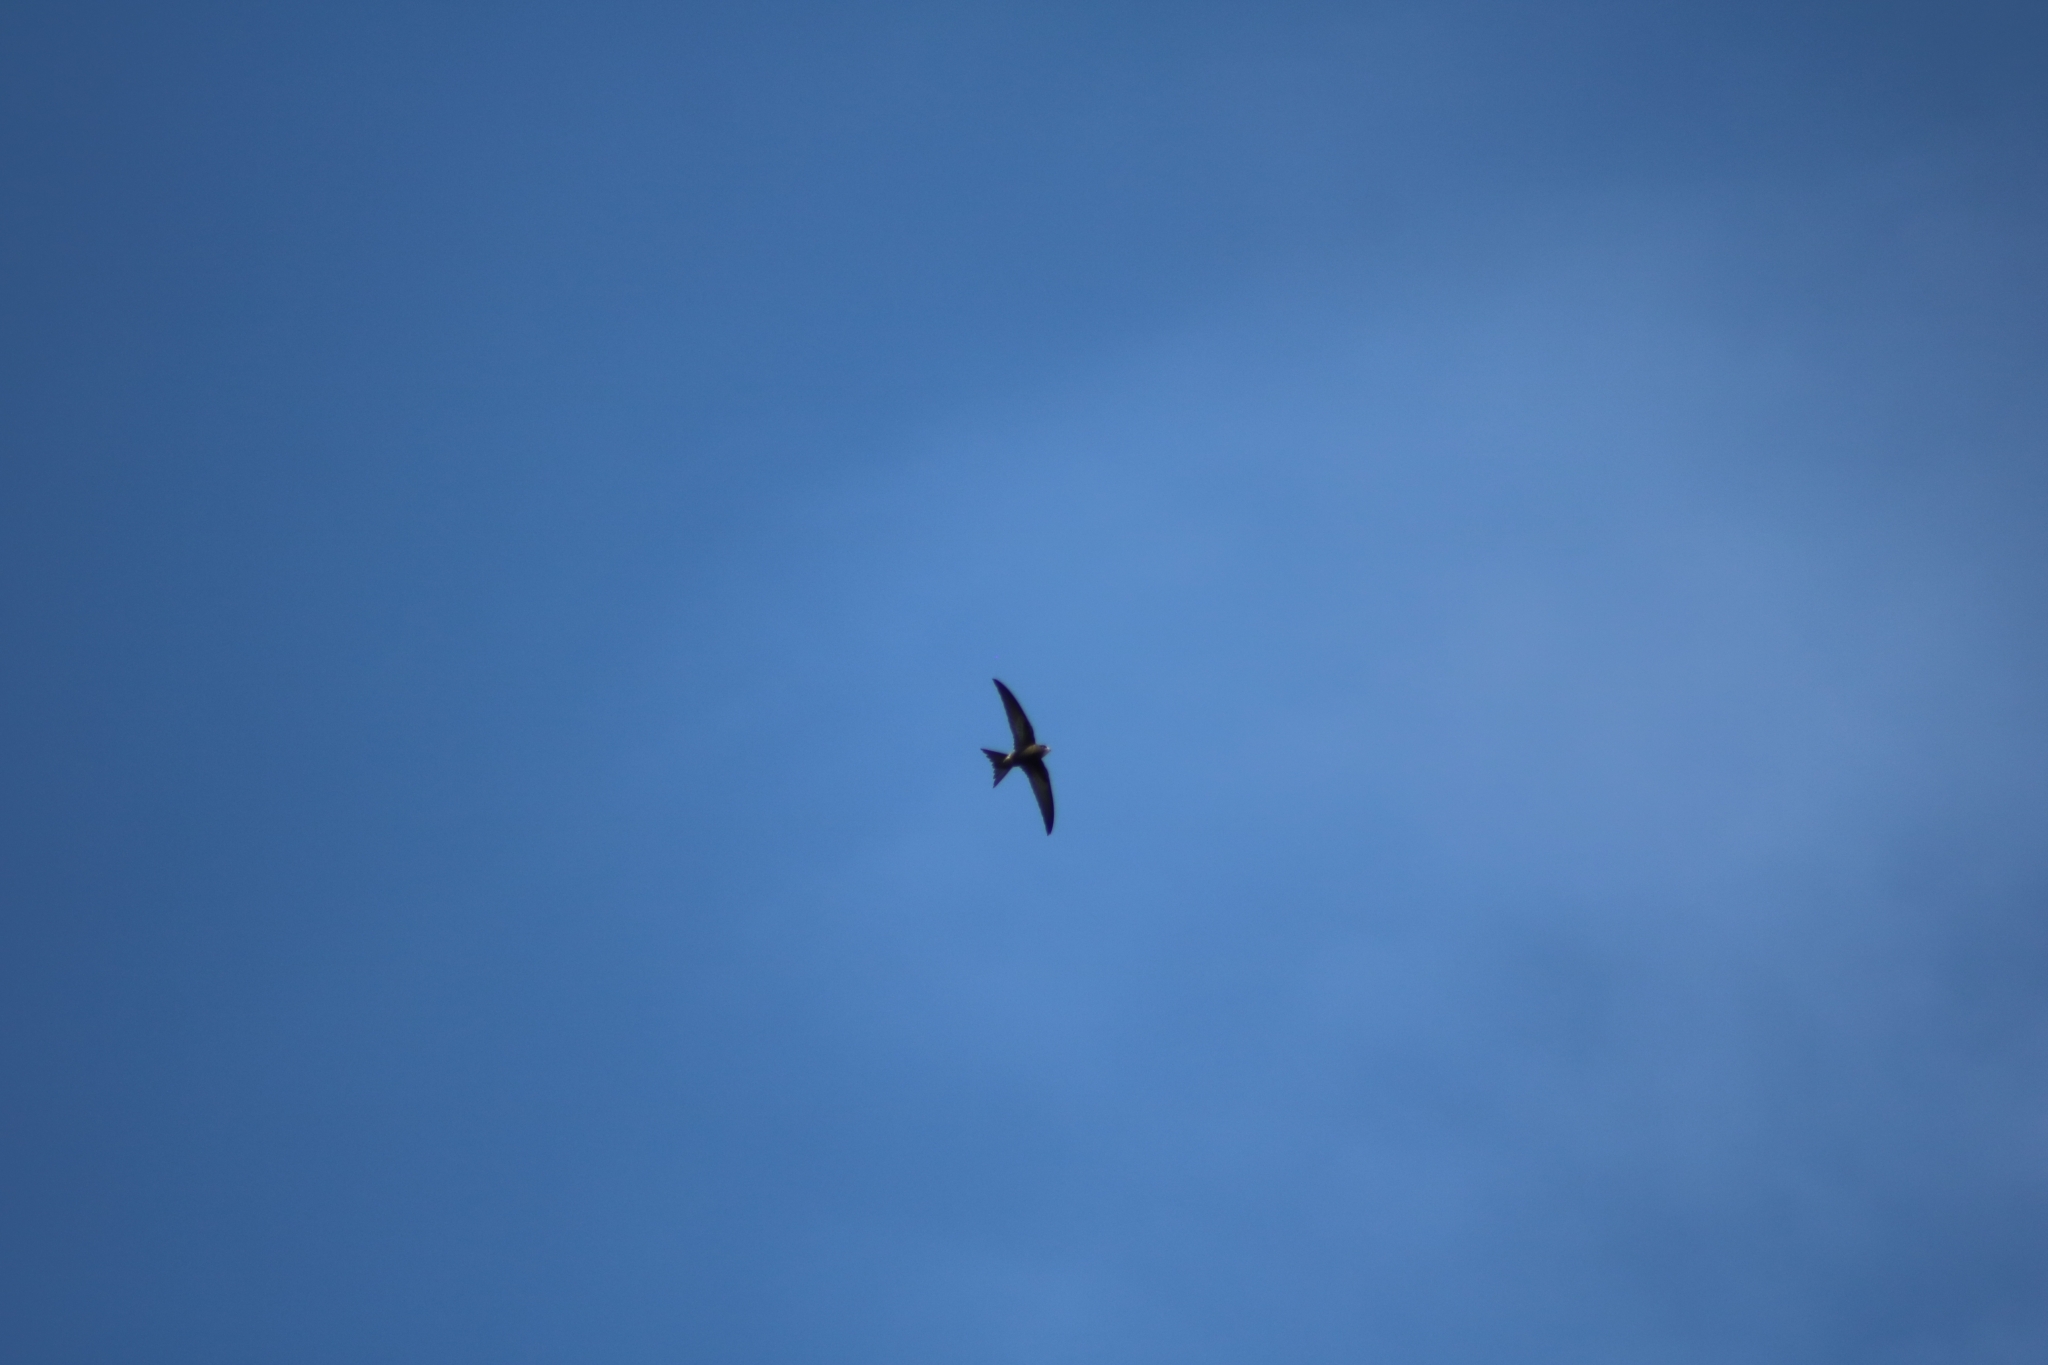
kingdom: Animalia
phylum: Chordata
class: Aves
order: Apodiformes
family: Apodidae
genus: Apus
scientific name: Apus apus
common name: Common swift
